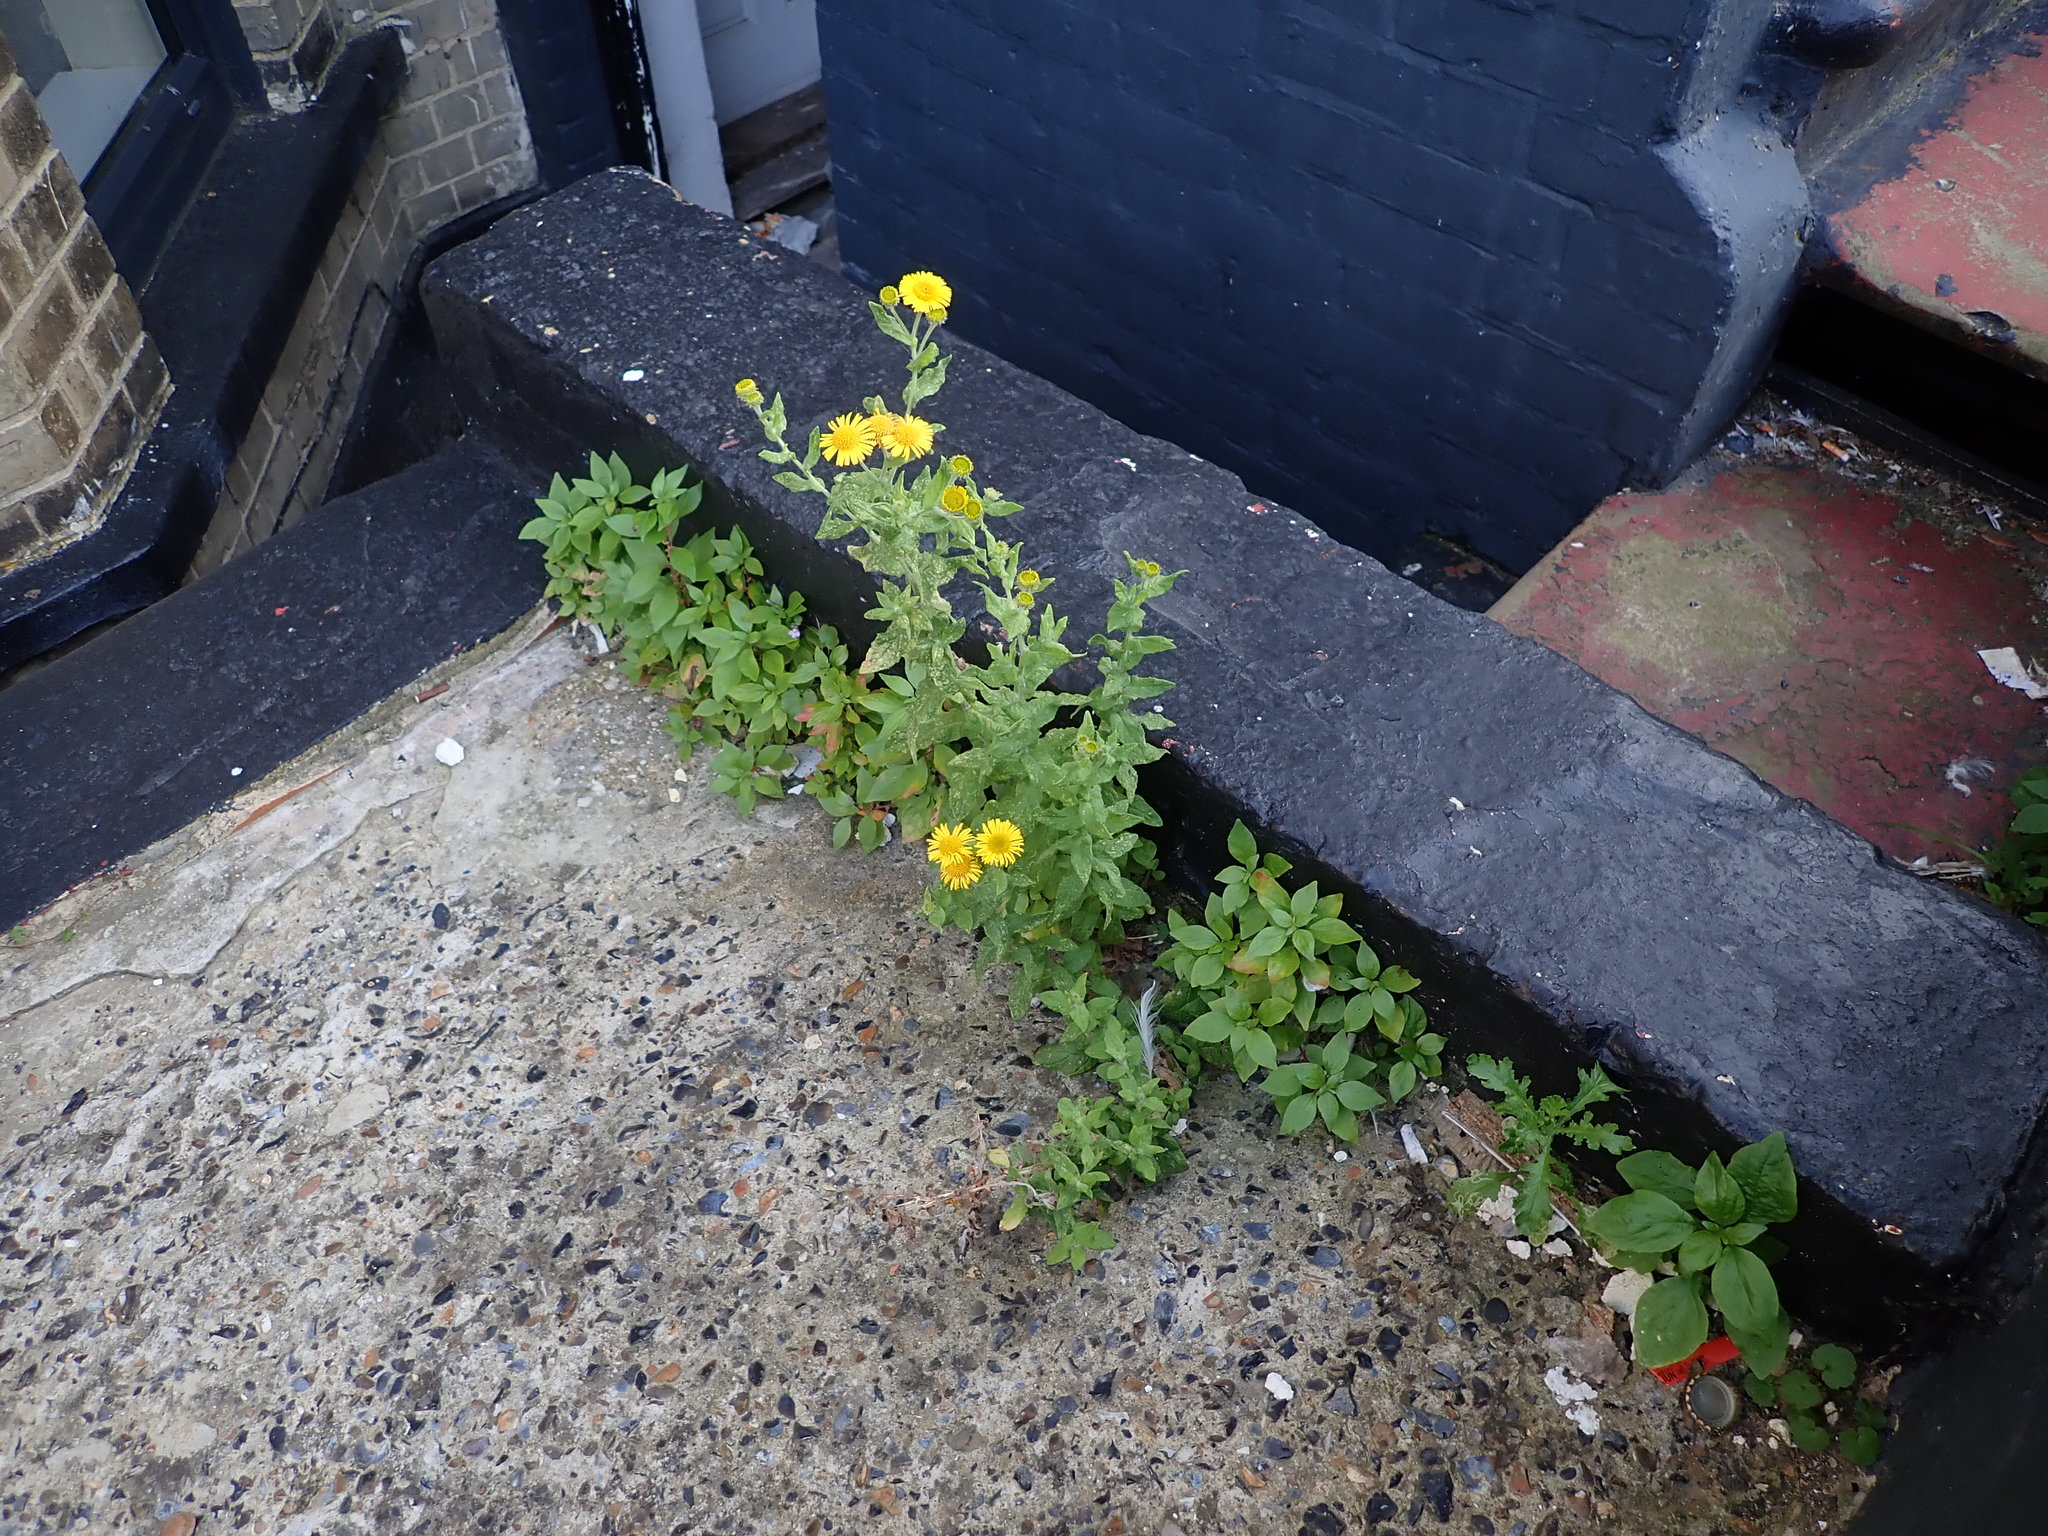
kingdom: Plantae
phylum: Tracheophyta
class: Magnoliopsida
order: Asterales
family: Asteraceae
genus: Pulicaria
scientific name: Pulicaria dysenterica
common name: Common fleabane
